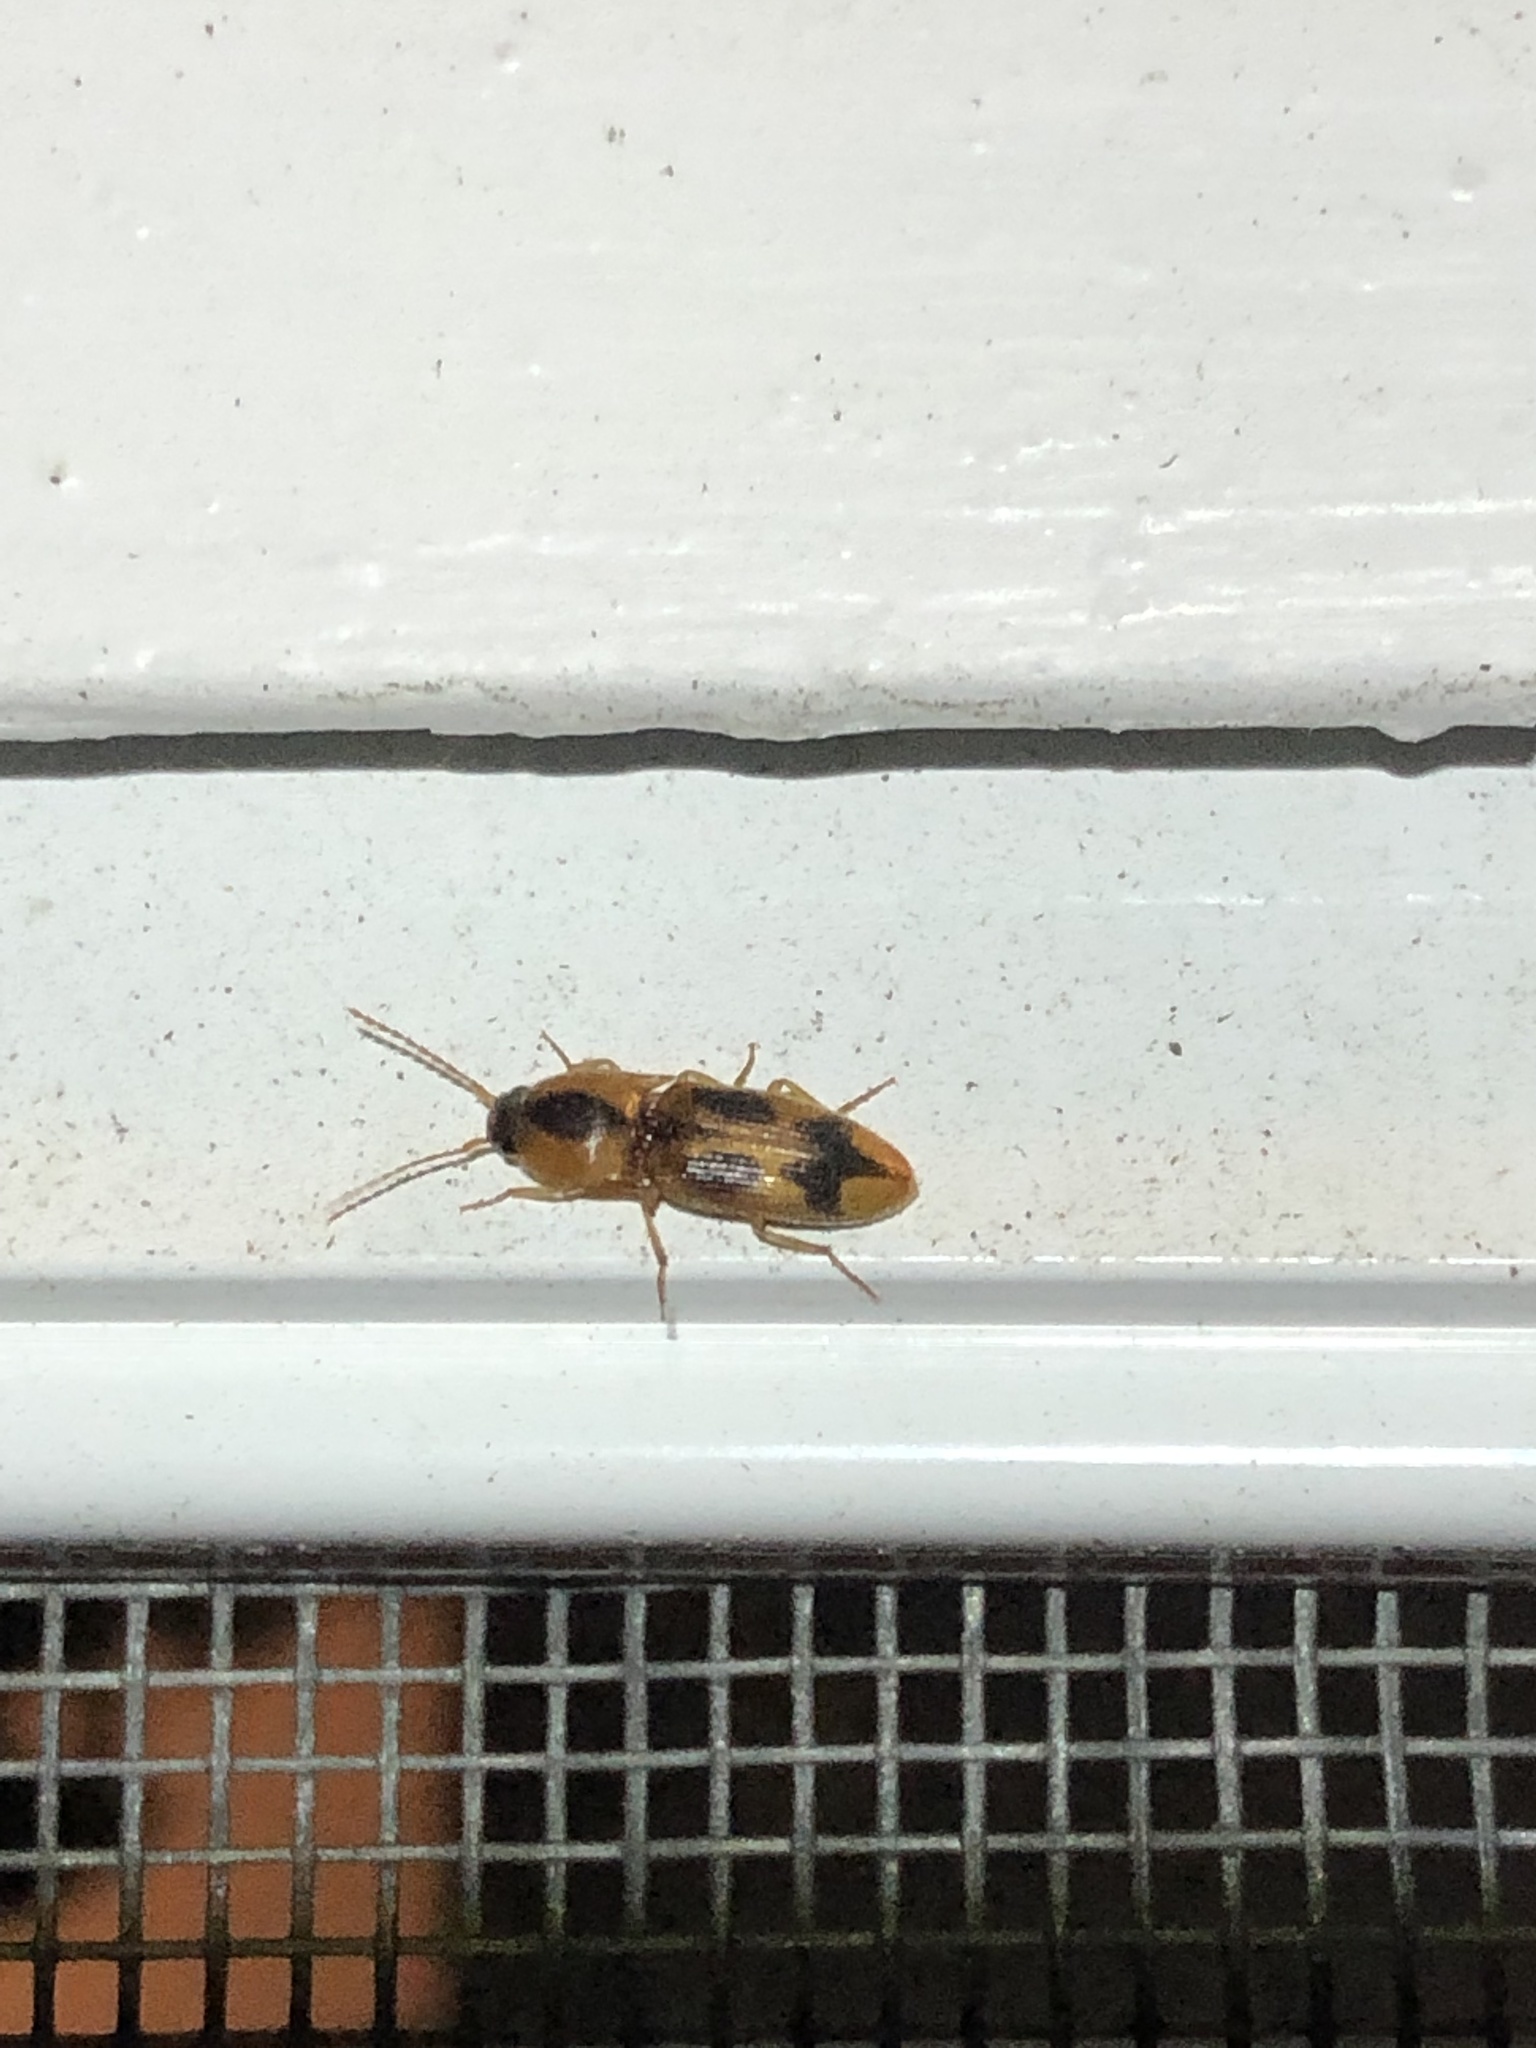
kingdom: Animalia
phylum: Arthropoda
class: Insecta
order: Coleoptera
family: Elateridae
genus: Aeolus
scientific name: Aeolus mellillus
